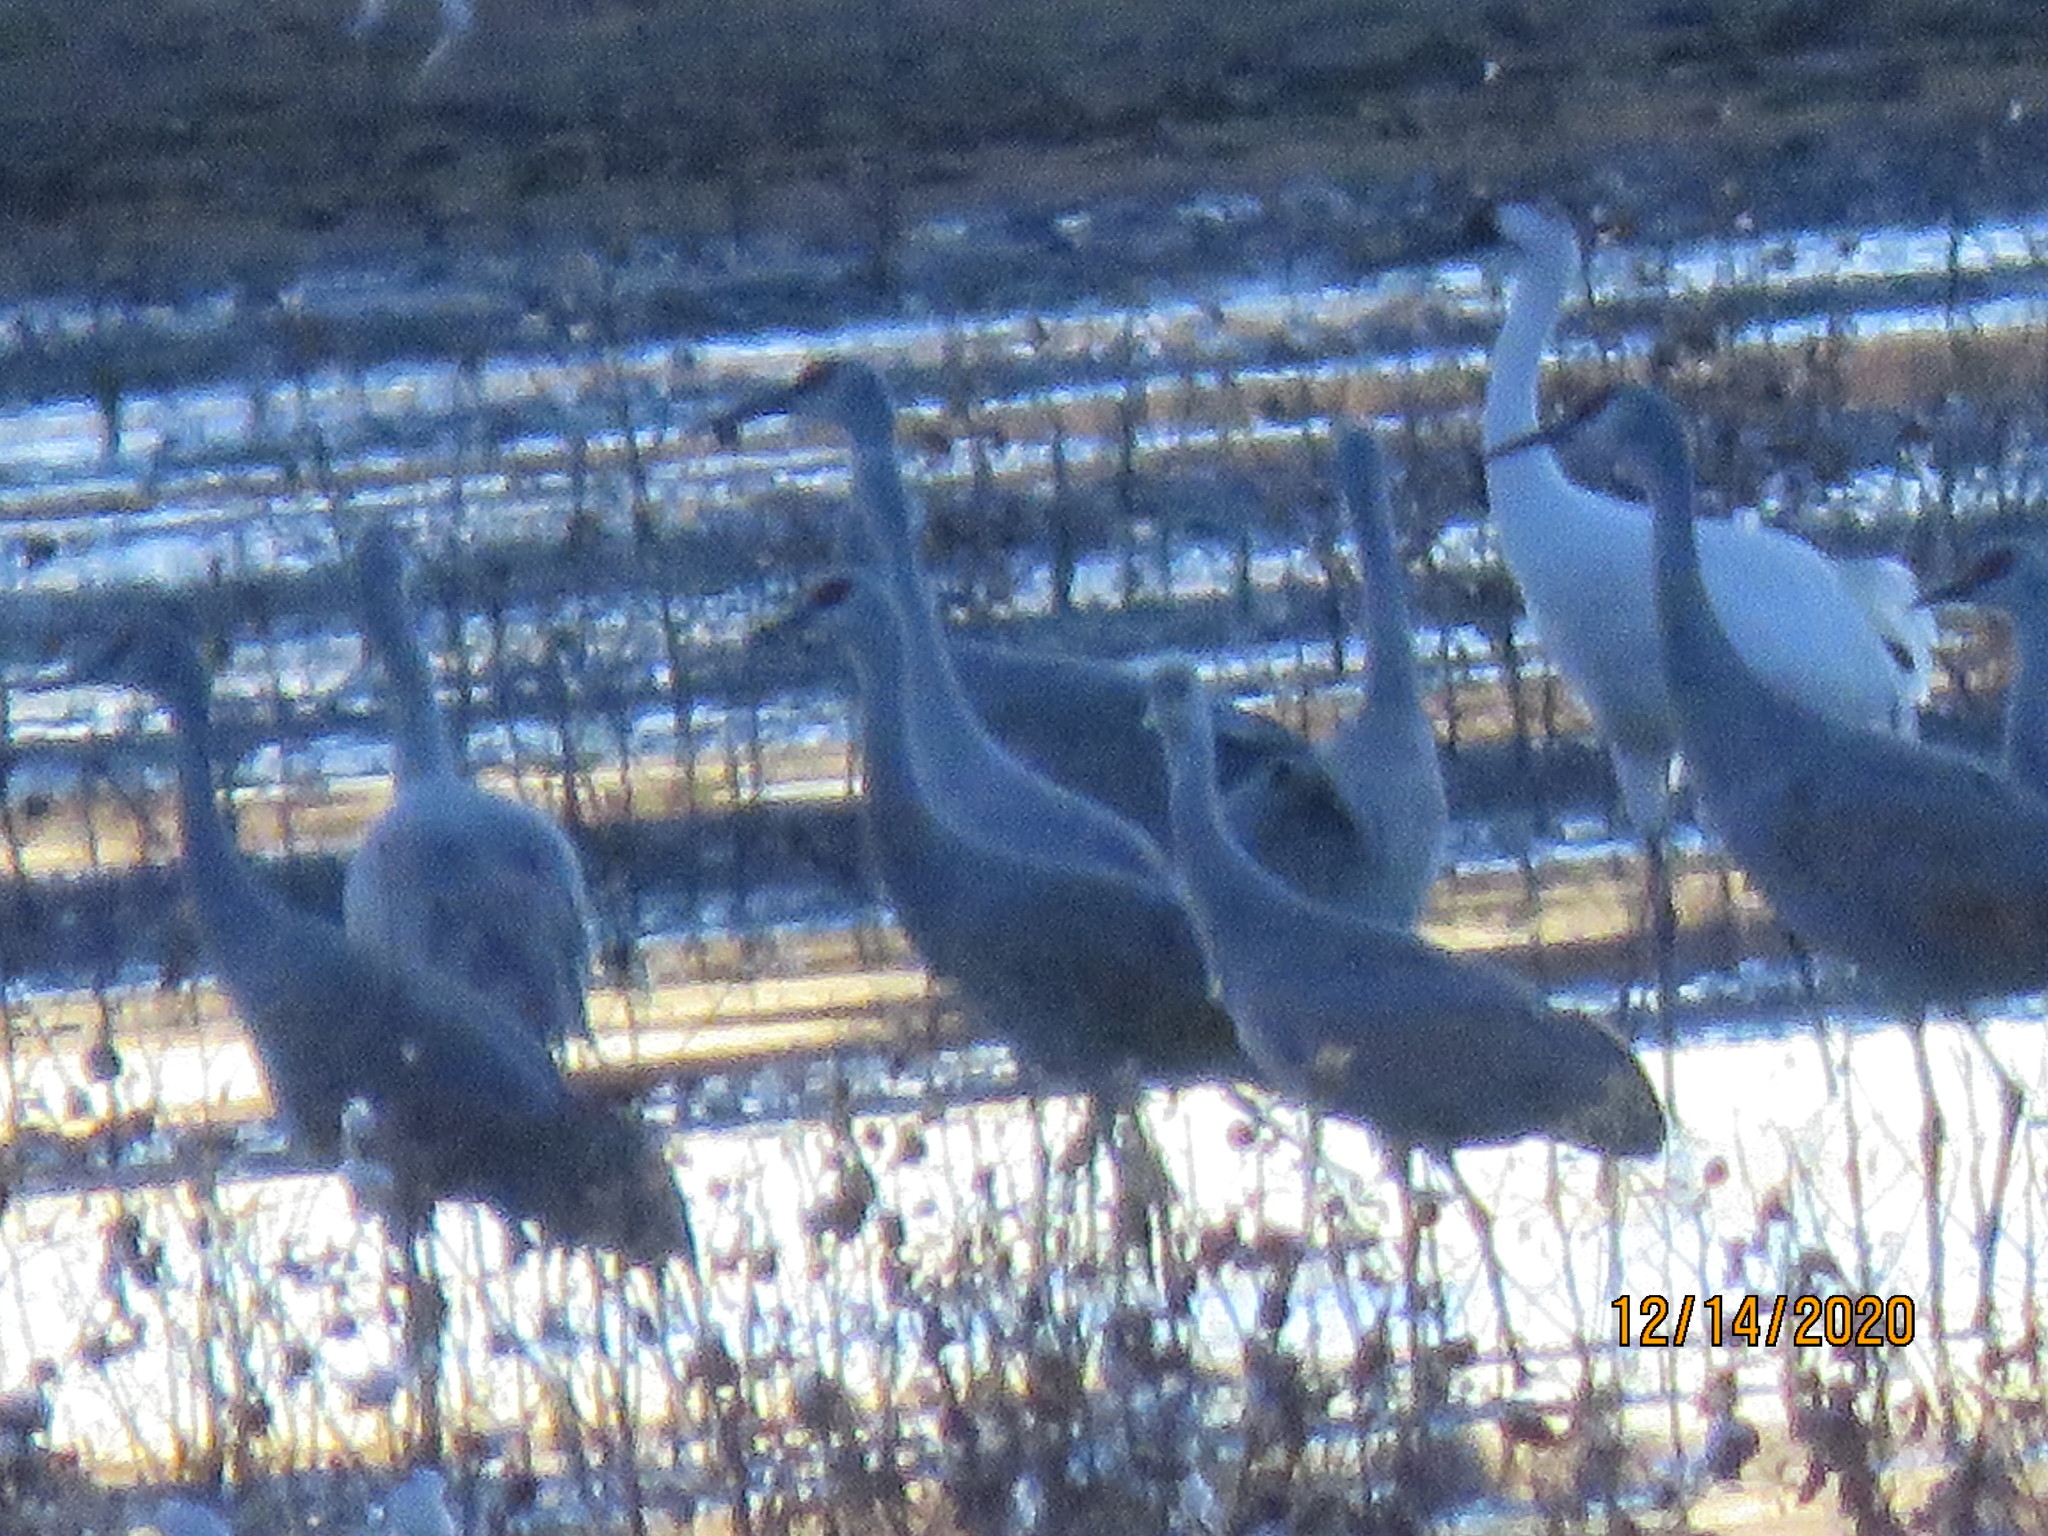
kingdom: Animalia
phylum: Chordata
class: Aves
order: Gruiformes
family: Gruidae
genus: Grus
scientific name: Grus americana
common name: Whooping crane
